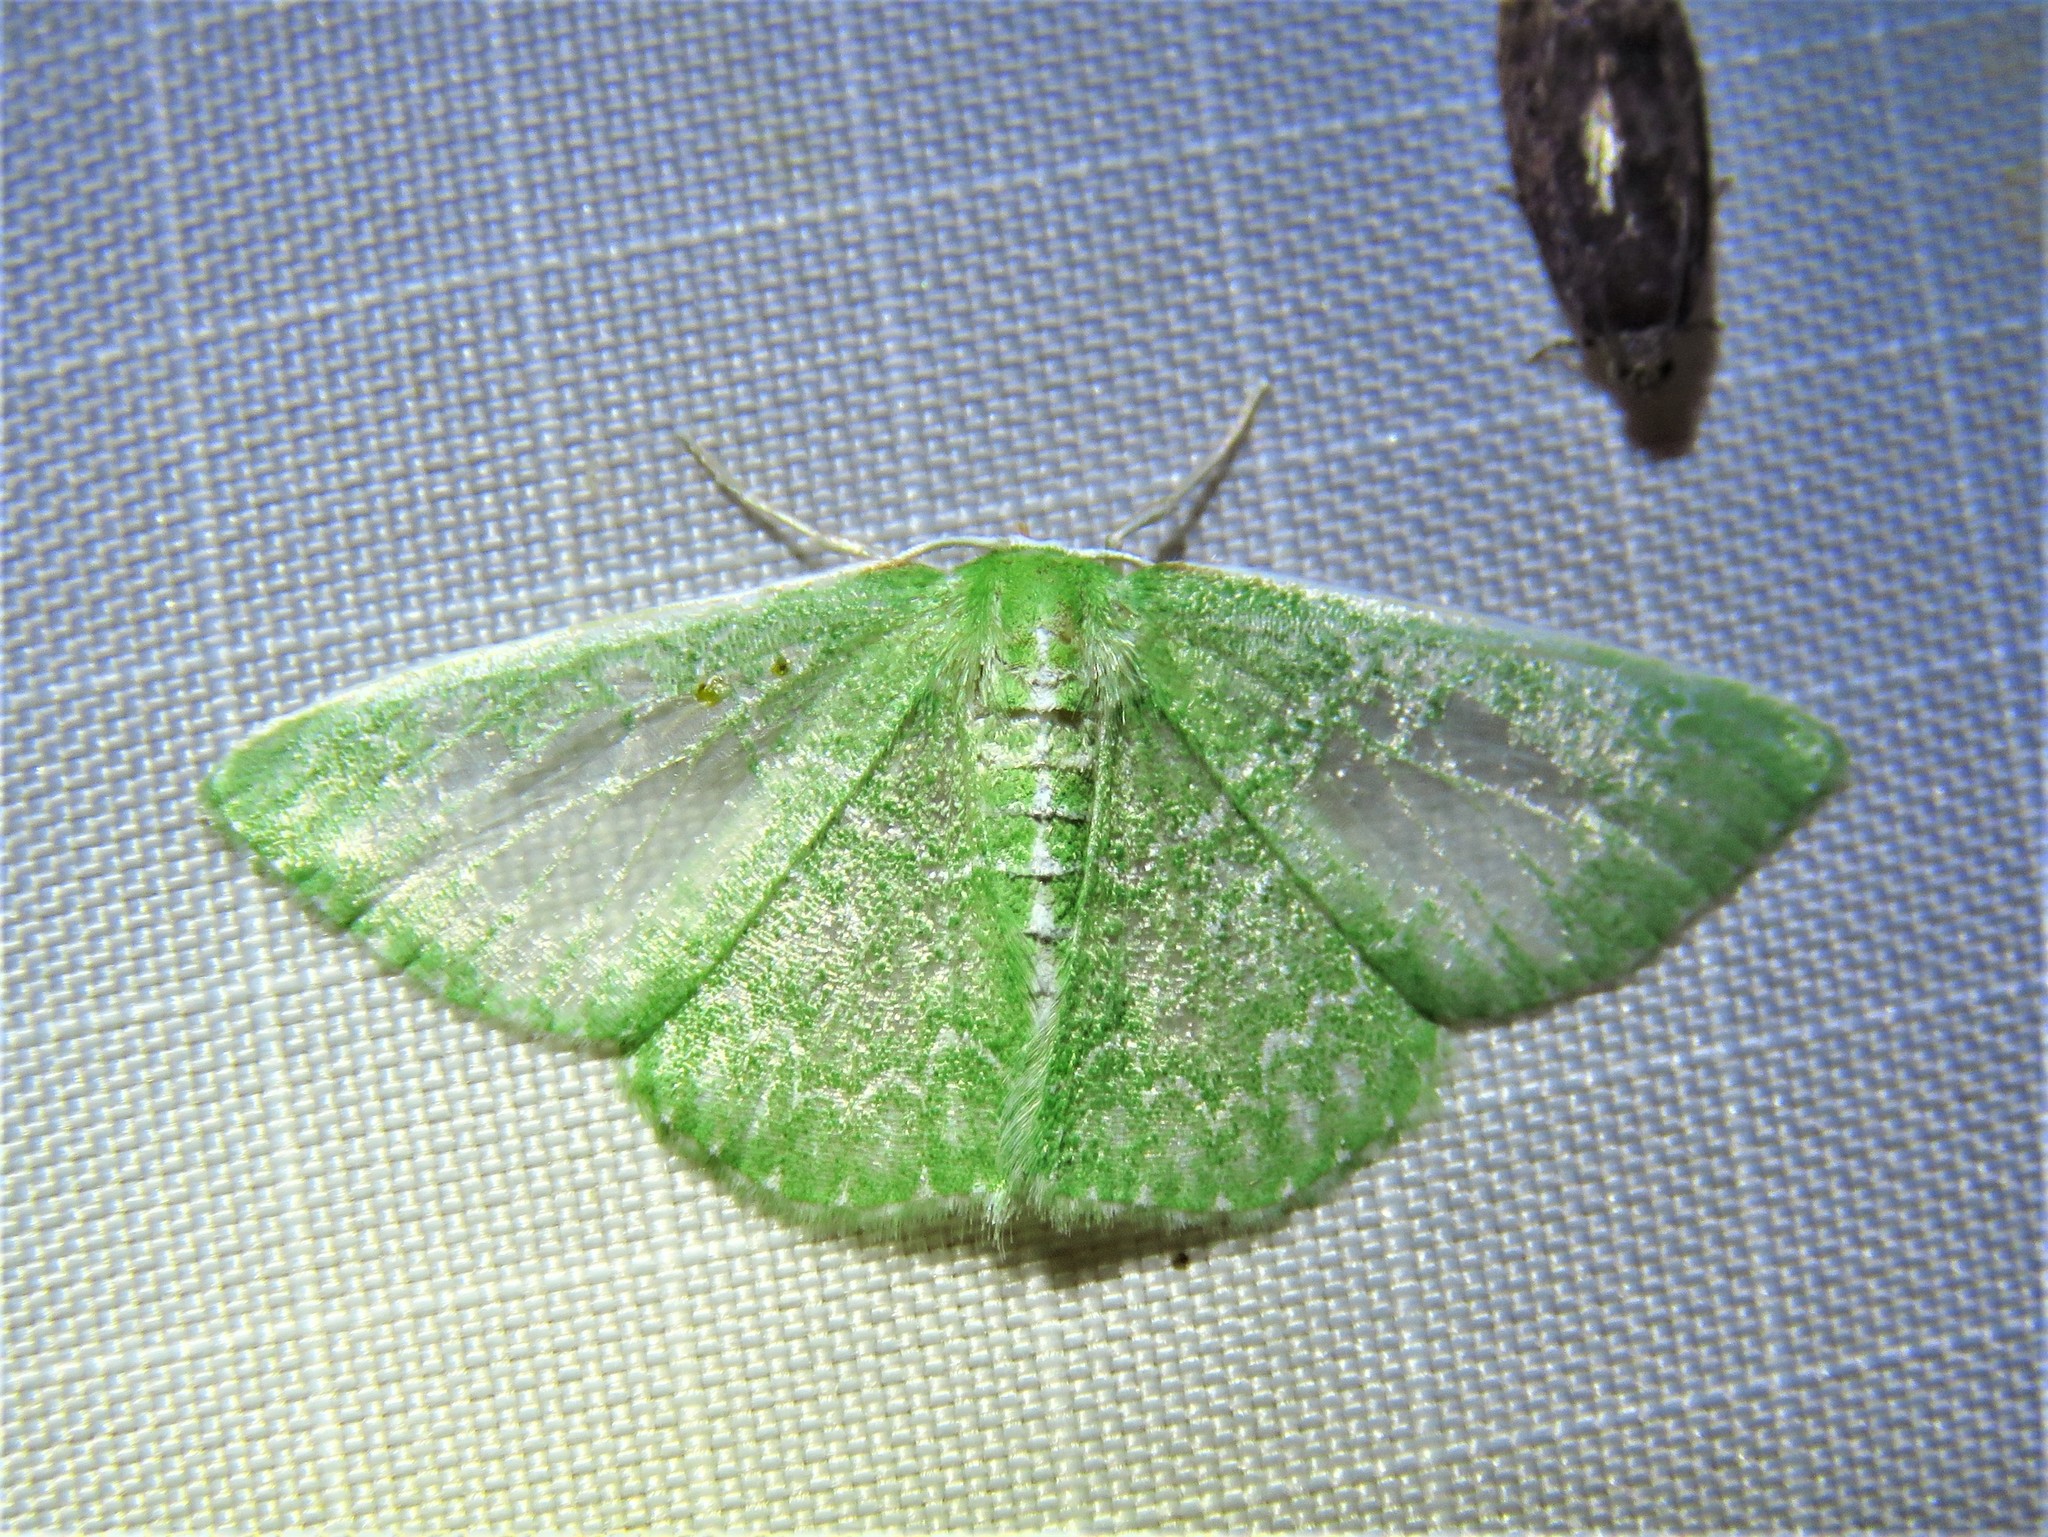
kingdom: Animalia
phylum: Arthropoda
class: Insecta
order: Lepidoptera
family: Geometridae
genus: Synchlora
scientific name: Synchlora frondaria
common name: Southern emerald
